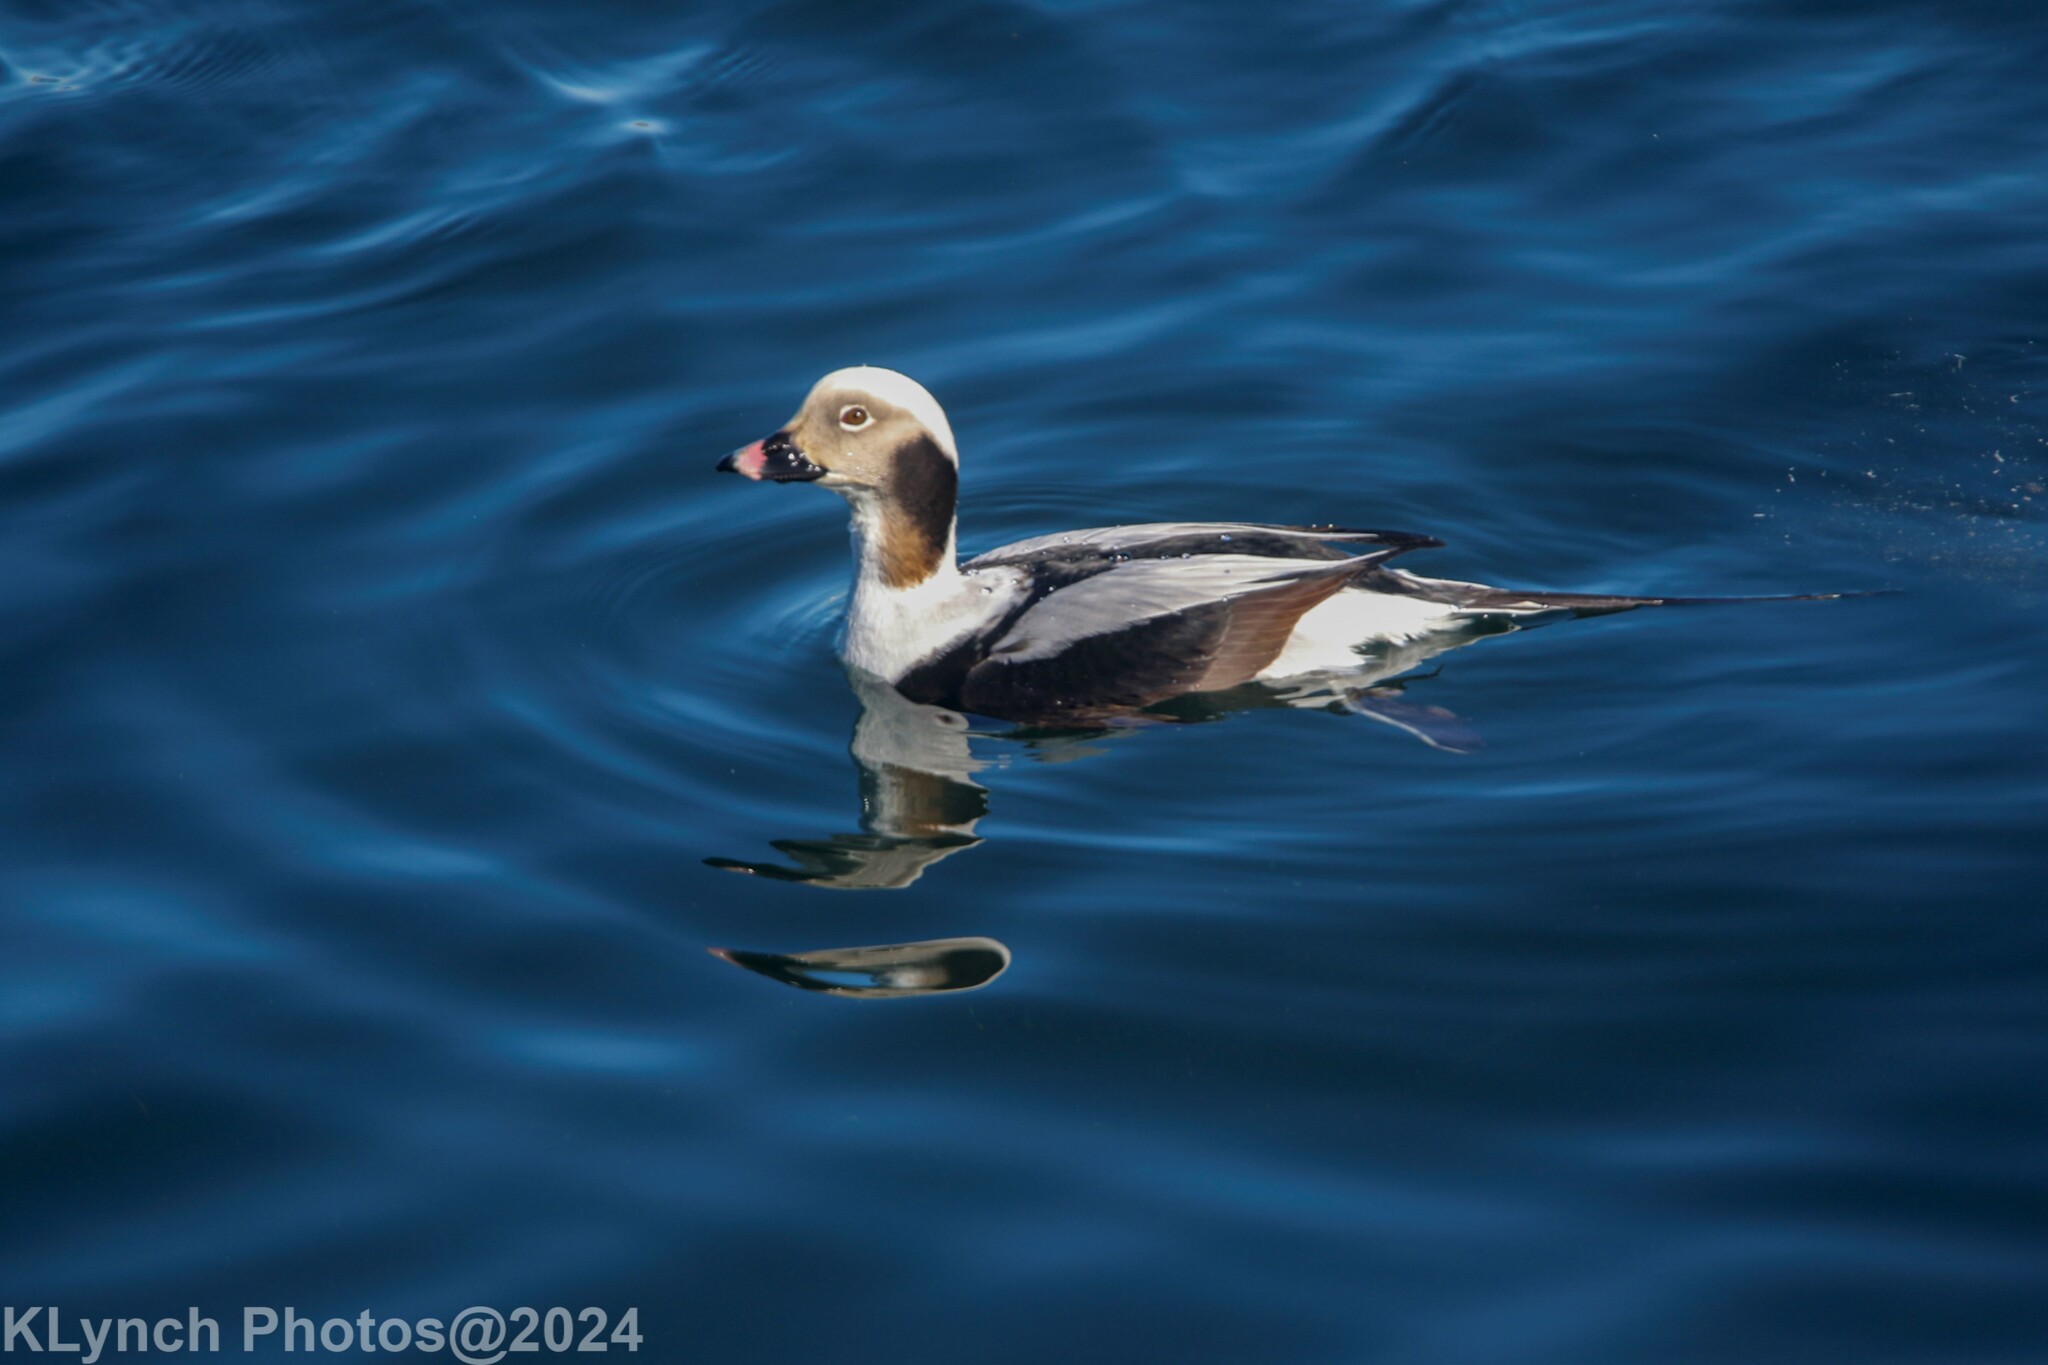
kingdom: Animalia
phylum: Chordata
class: Aves
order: Anseriformes
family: Anatidae
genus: Clangula
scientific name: Clangula hyemalis
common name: Long-tailed duck
